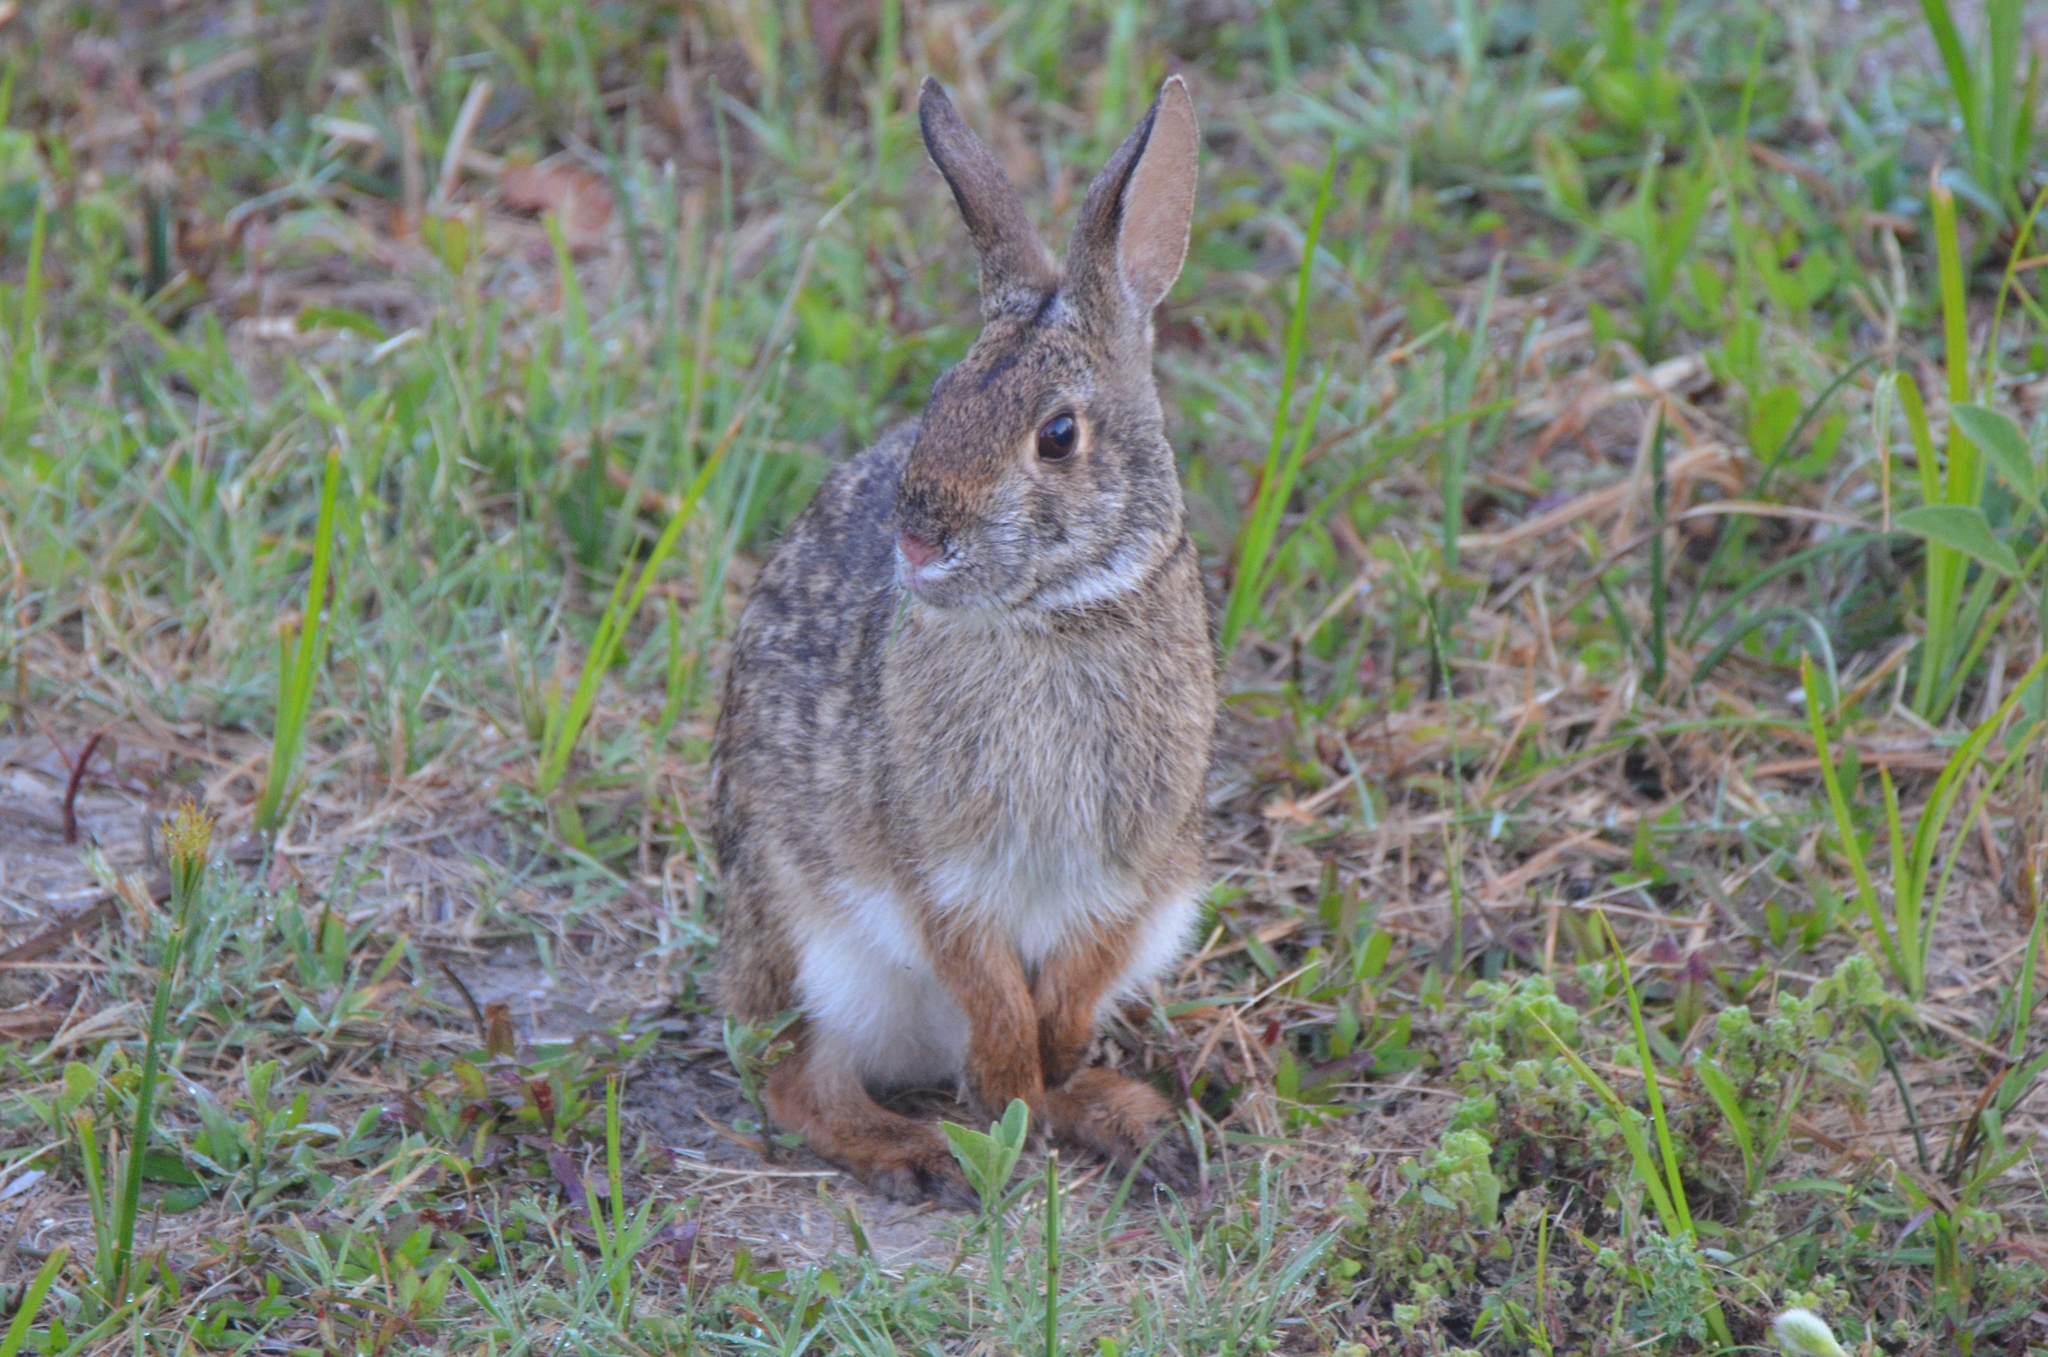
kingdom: Animalia
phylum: Chordata
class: Mammalia
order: Lagomorpha
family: Leporidae
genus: Sylvilagus
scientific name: Sylvilagus aquaticus
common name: Swamp rabbit
